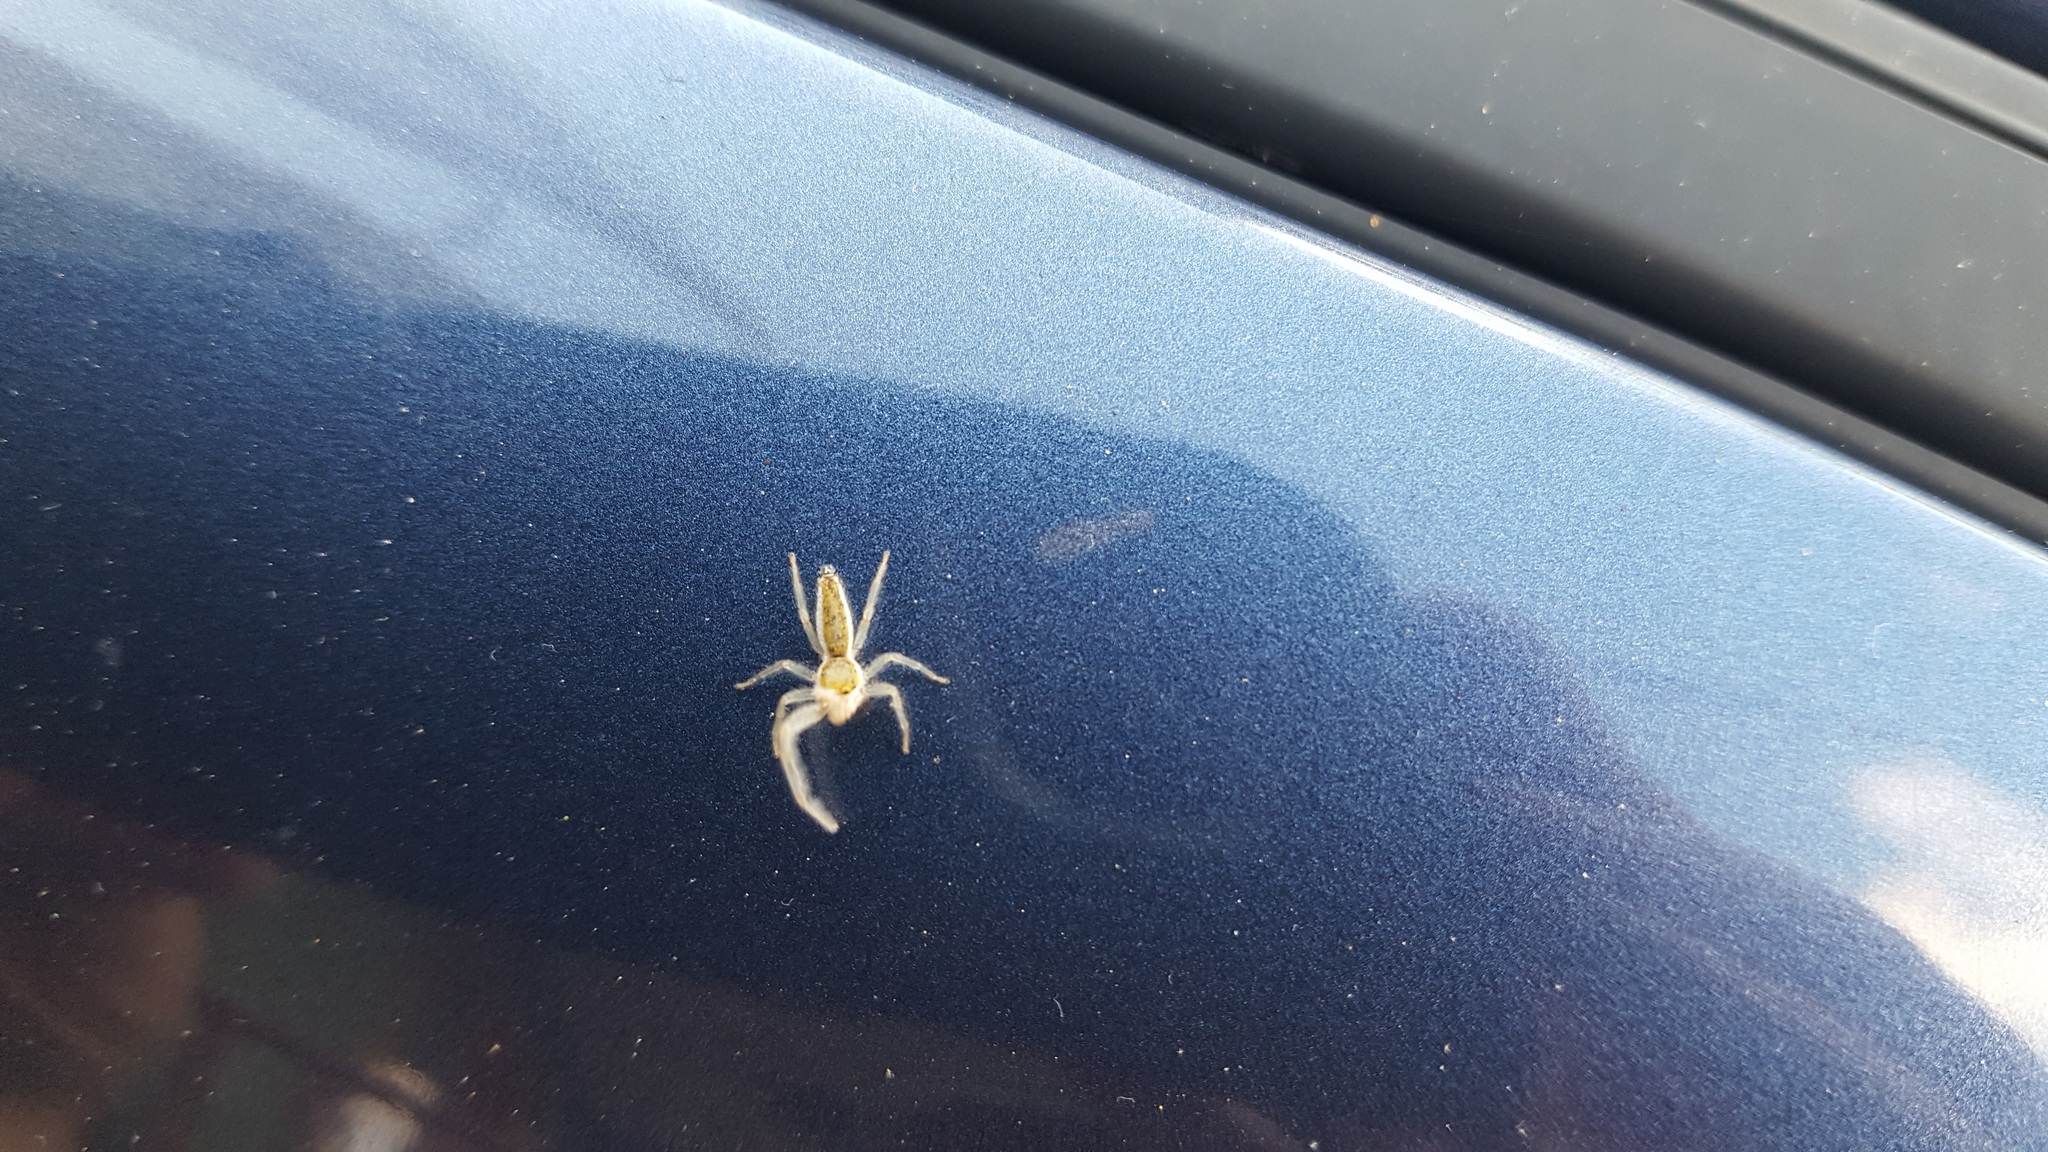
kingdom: Animalia
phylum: Arthropoda
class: Arachnida
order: Araneae
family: Salticidae
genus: Hentzia
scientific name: Hentzia mitrata
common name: White-jawed jumping spider
